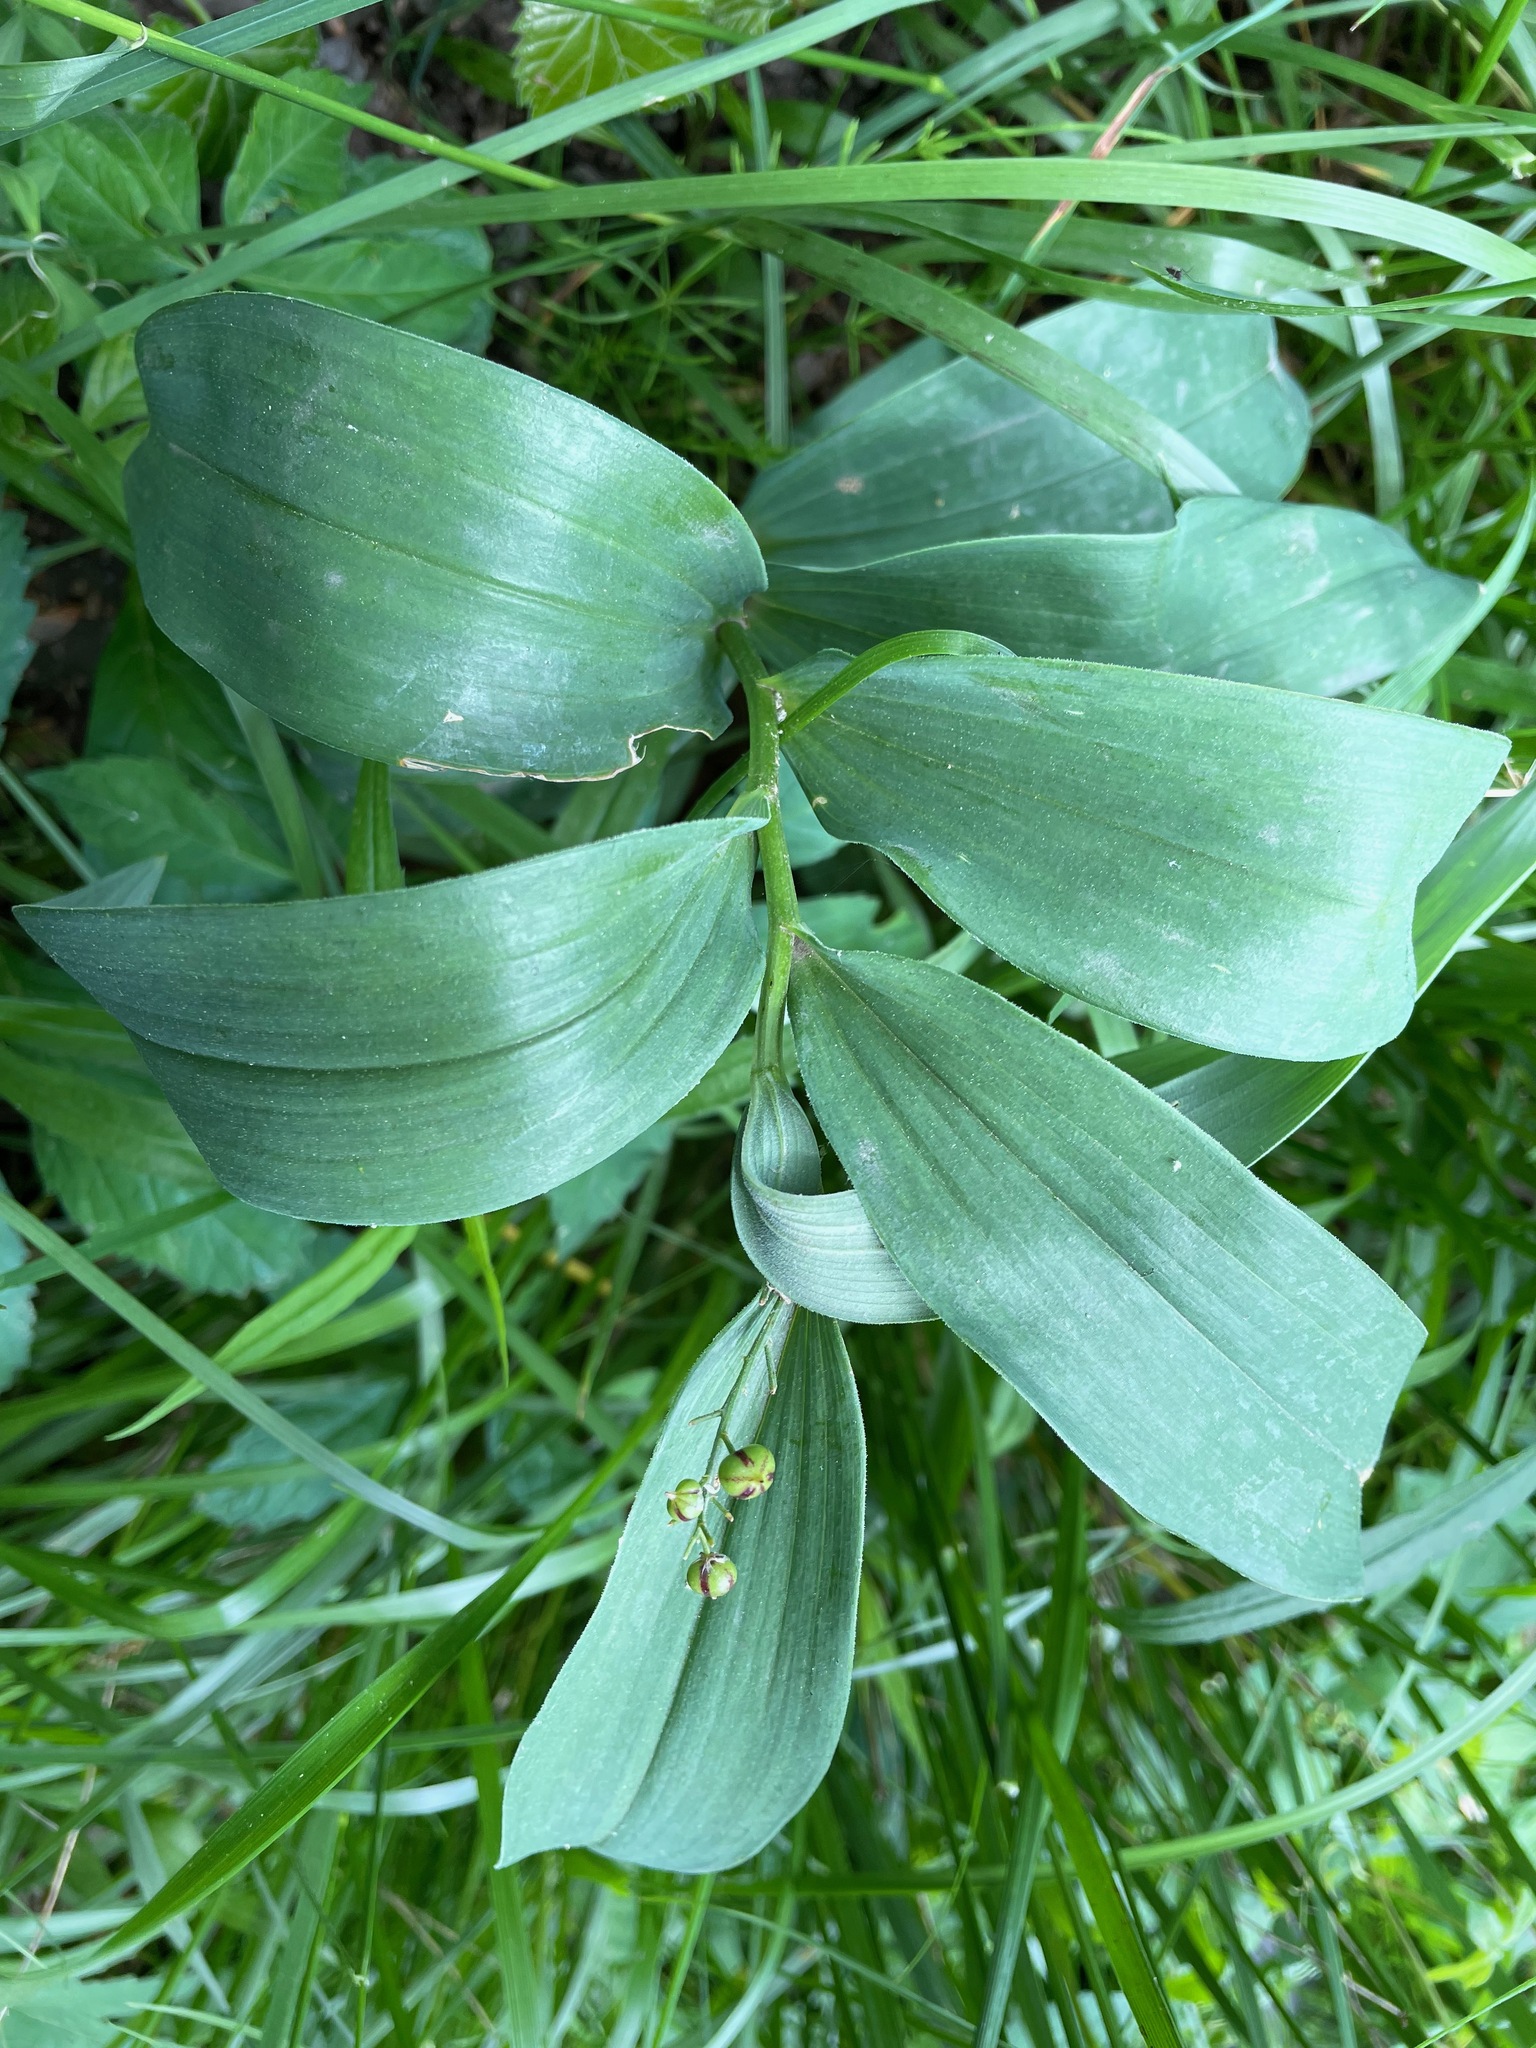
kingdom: Plantae
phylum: Tracheophyta
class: Liliopsida
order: Asparagales
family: Asparagaceae
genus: Maianthemum
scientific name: Maianthemum stellatum
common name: Little false solomon's seal
